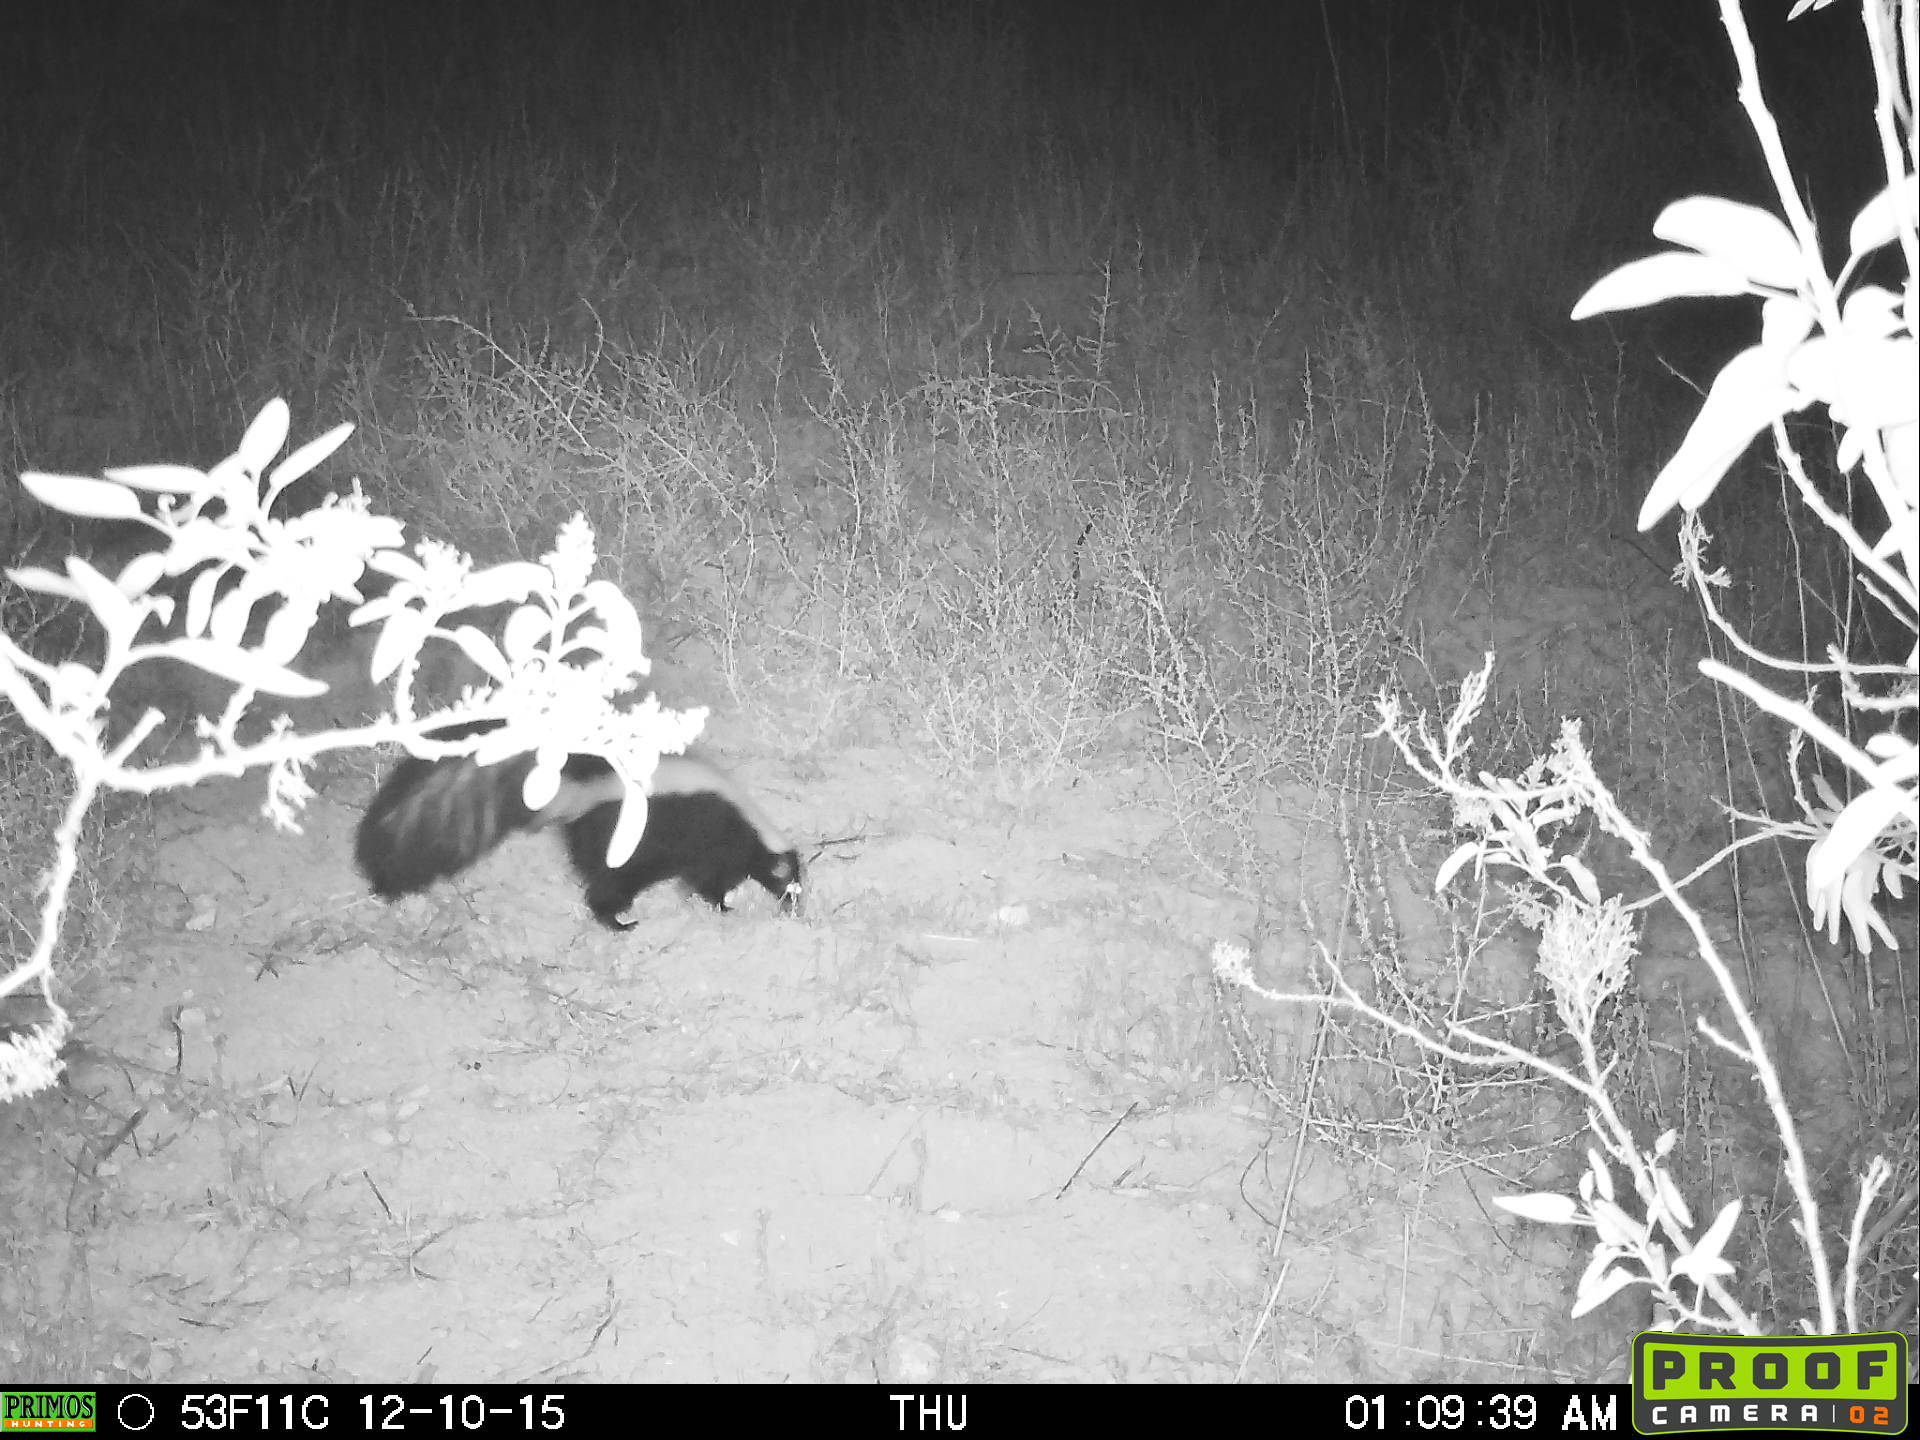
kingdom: Animalia
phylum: Chordata
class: Mammalia
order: Carnivora
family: Mephitidae
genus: Mephitis
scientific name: Mephitis mephitis
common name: Striped skunk
